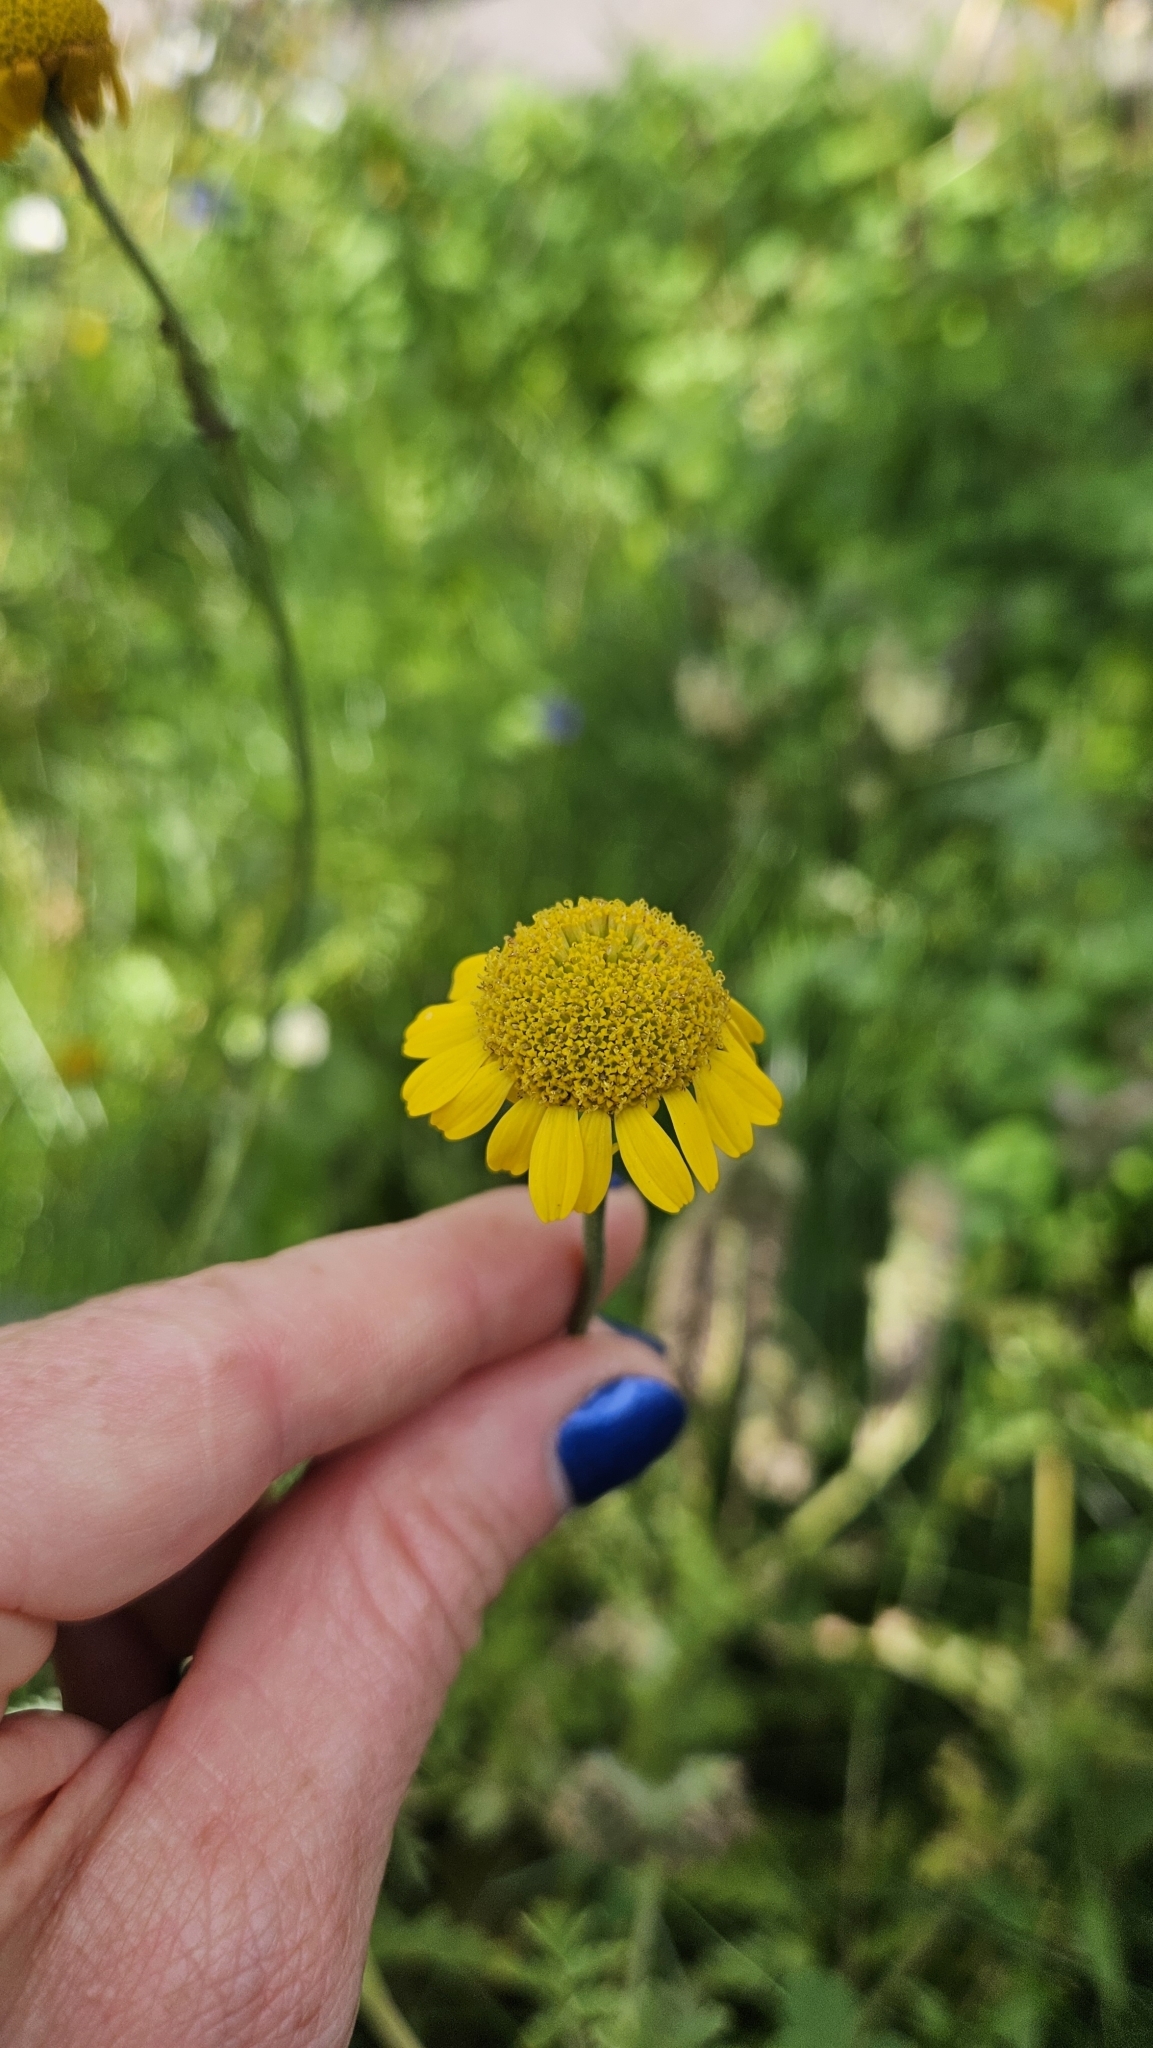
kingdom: Plantae
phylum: Tracheophyta
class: Magnoliopsida
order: Asterales
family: Asteraceae
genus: Cota
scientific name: Cota tinctoria
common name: Golden chamomile
